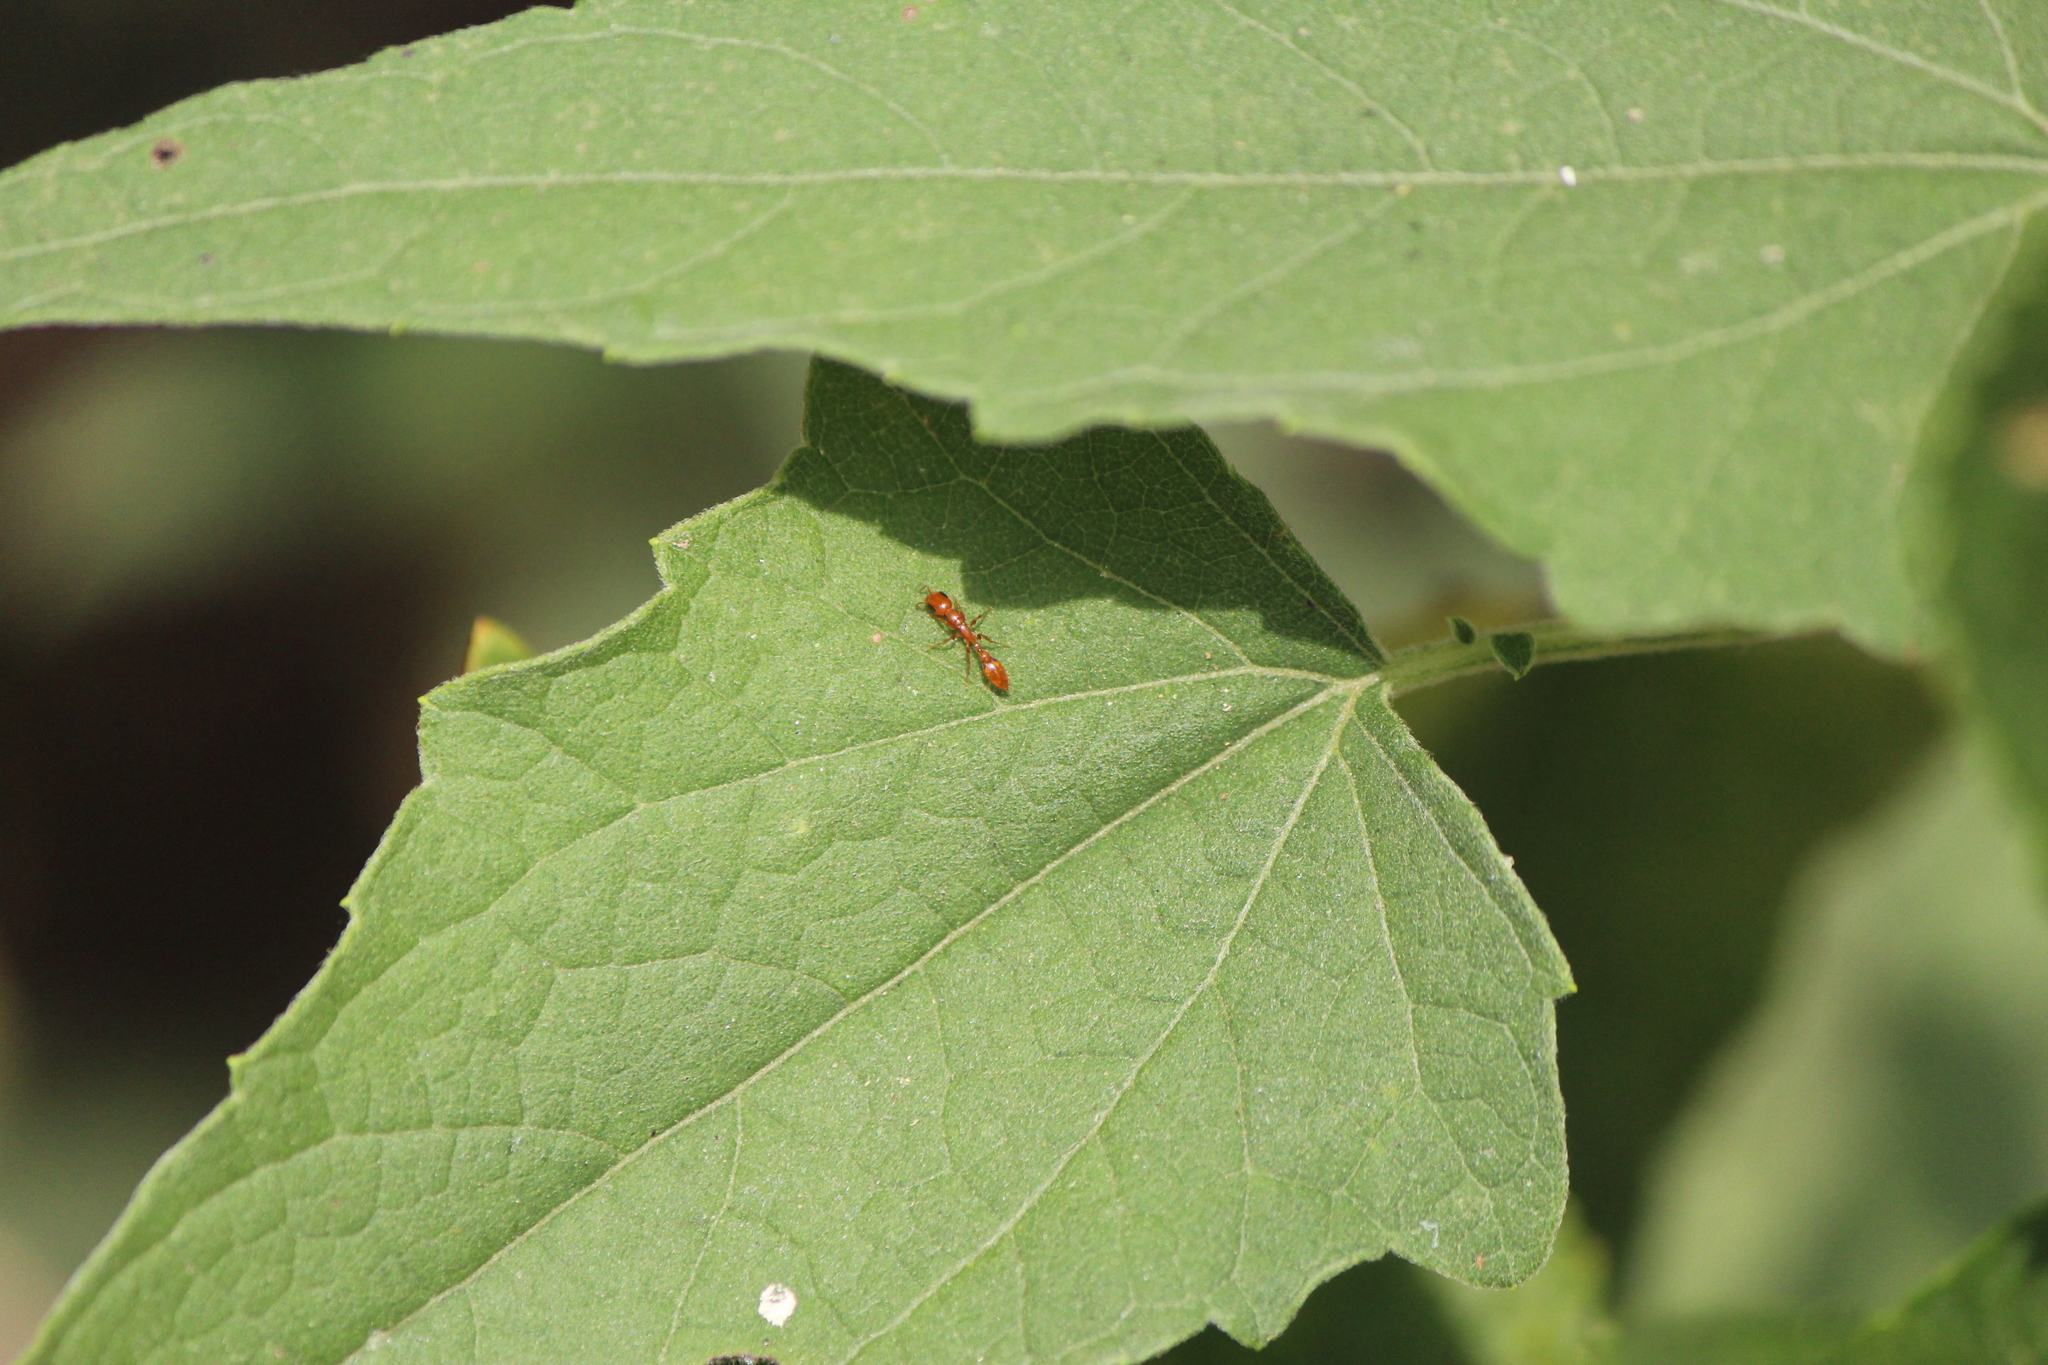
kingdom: Animalia
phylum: Arthropoda
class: Insecta
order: Hymenoptera
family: Formicidae
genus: Pseudomyrmex
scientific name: Pseudomyrmex pallidus
